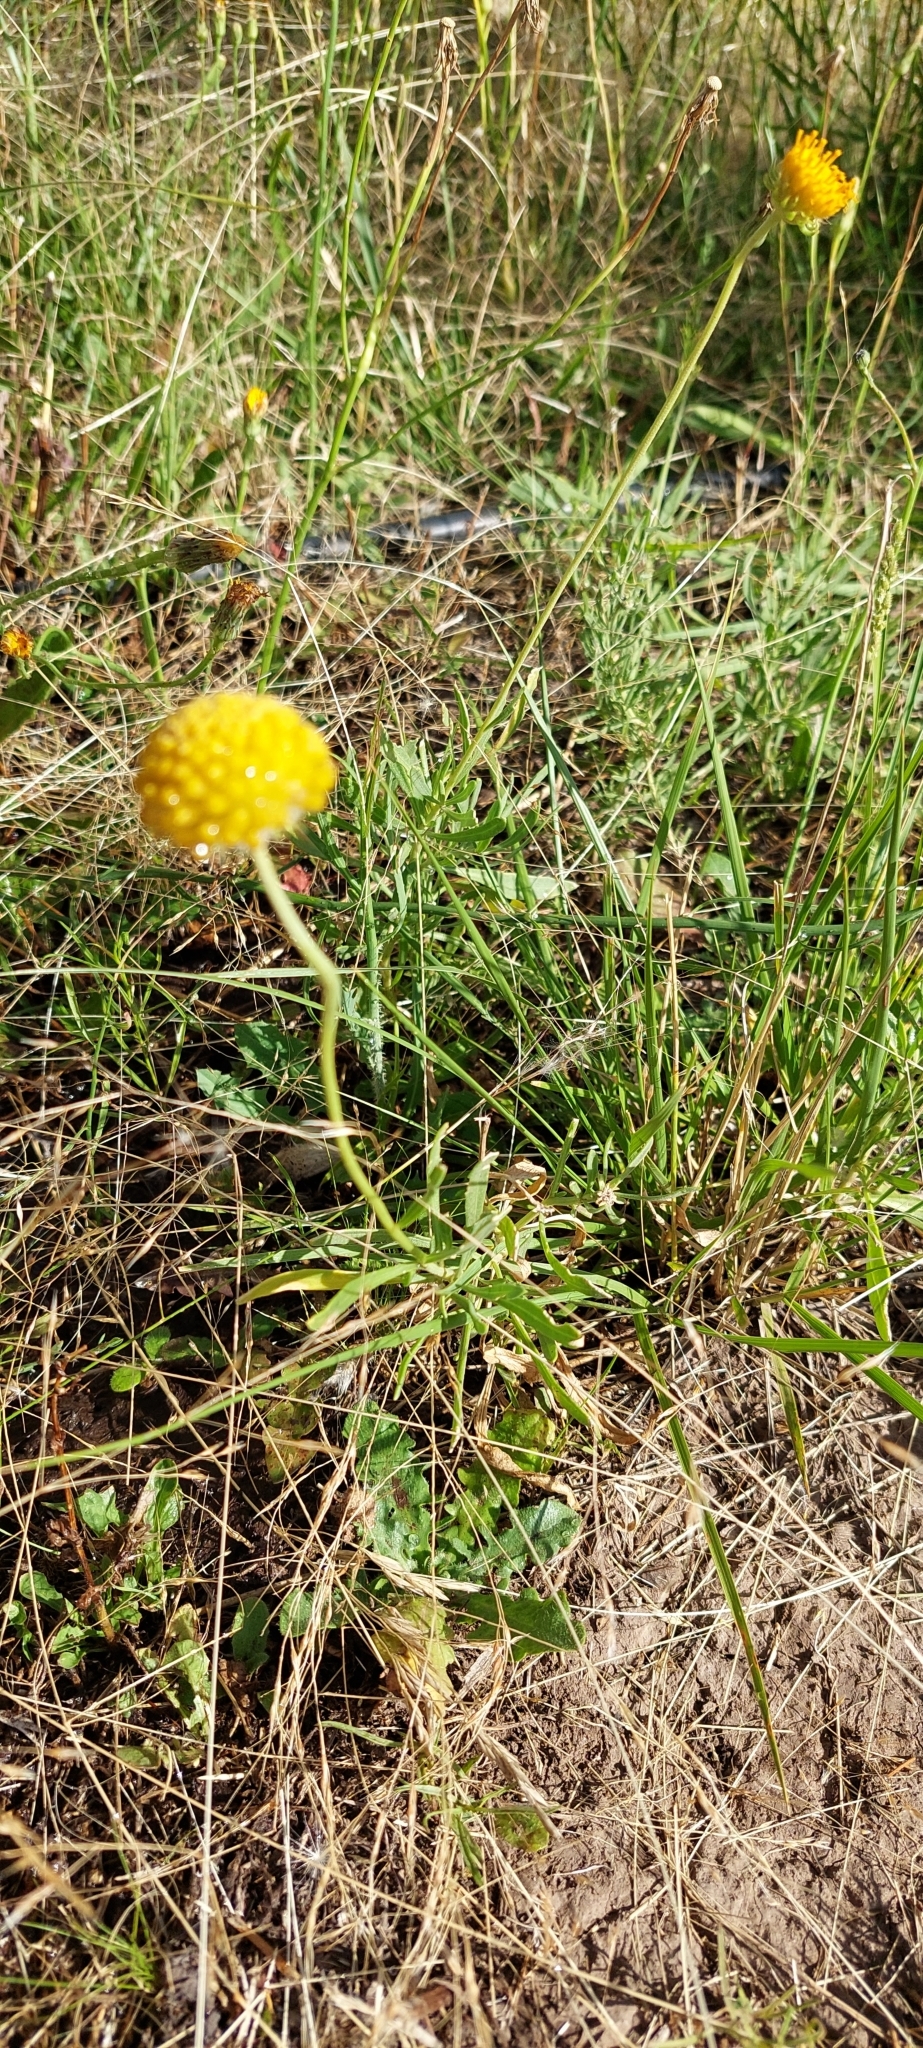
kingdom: Plantae
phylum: Tracheophyta
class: Magnoliopsida
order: Asterales
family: Asteraceae
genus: Gaillardia
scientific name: Gaillardia megapotamica
